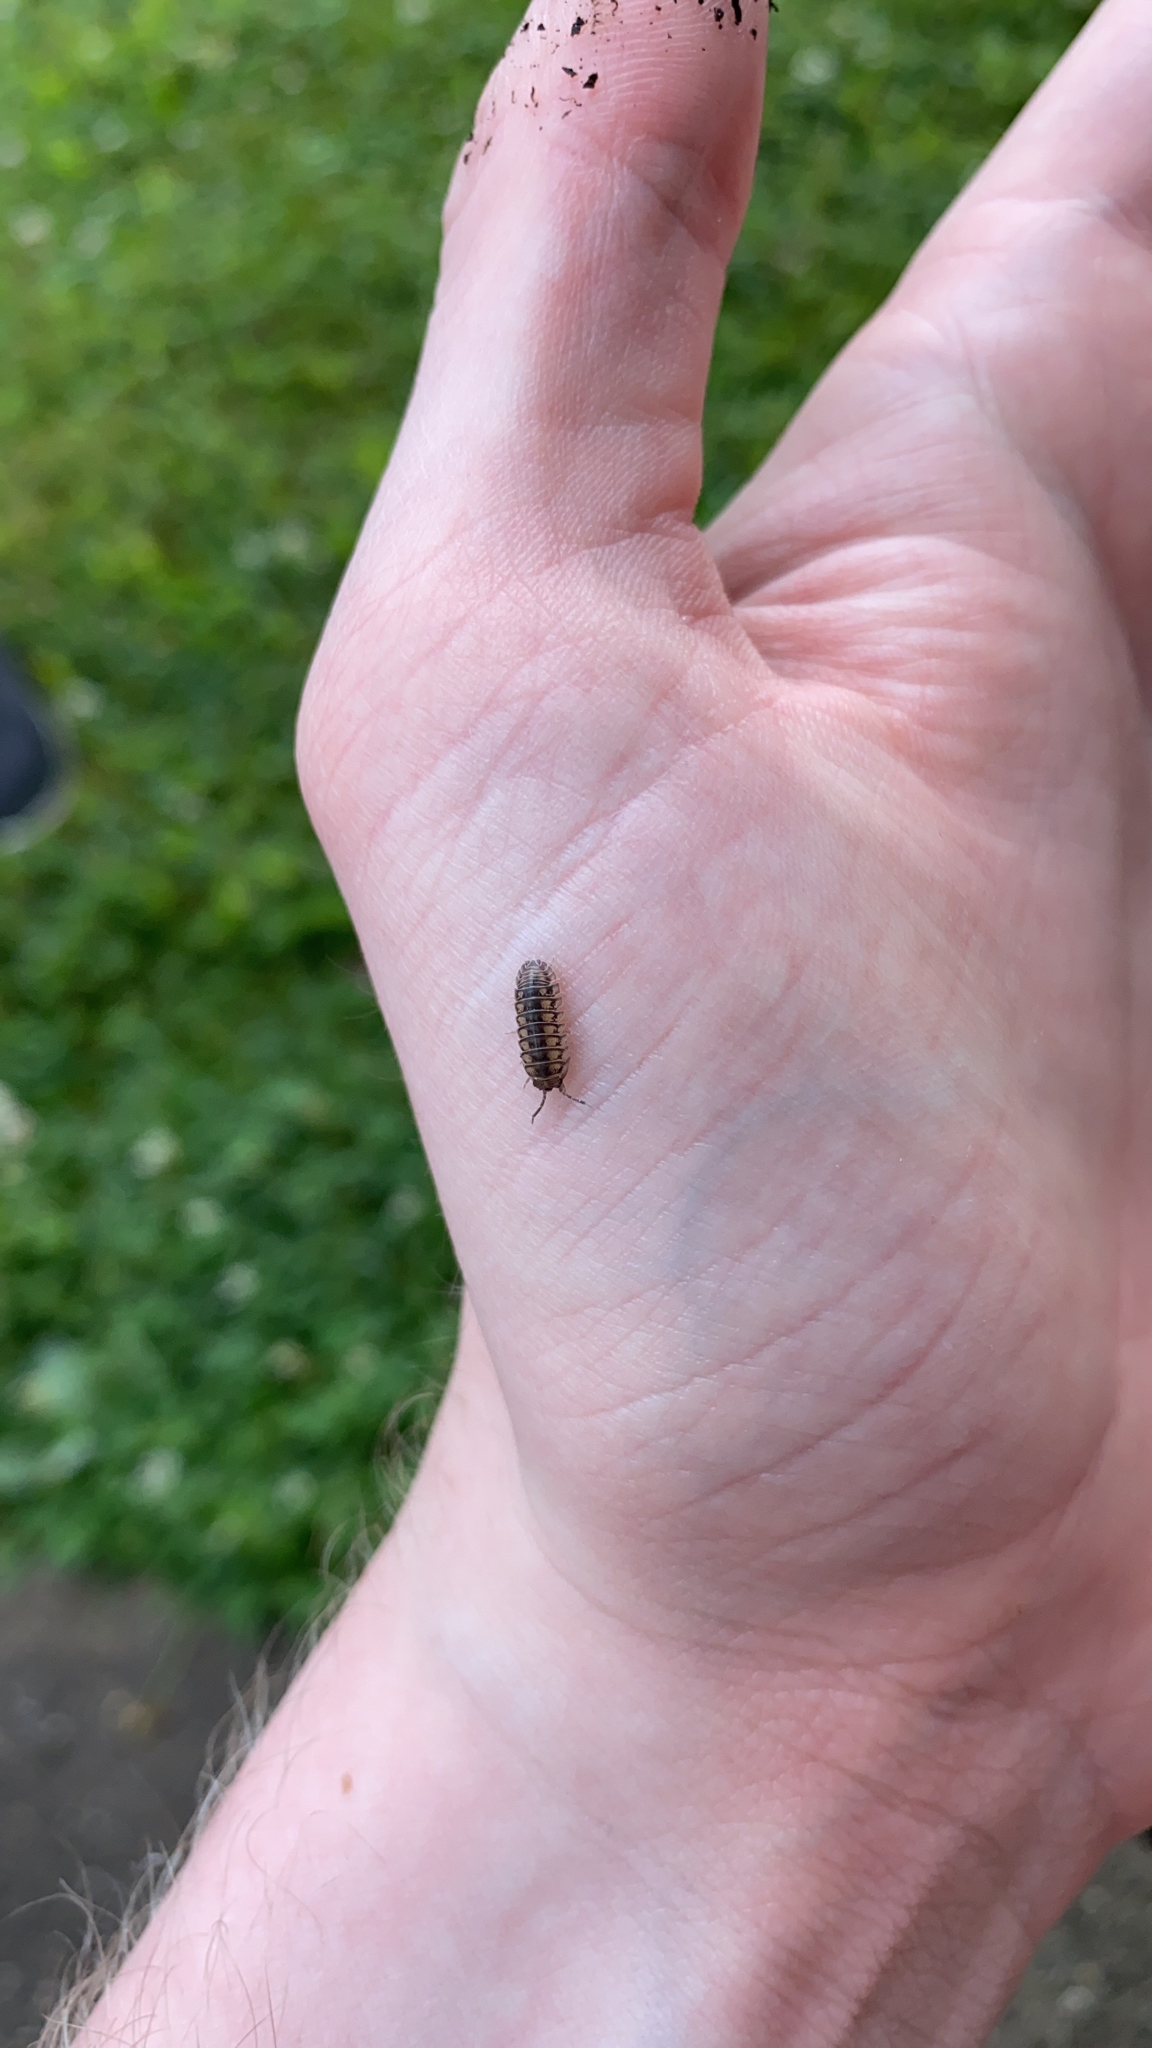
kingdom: Animalia
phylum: Arthropoda
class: Malacostraca
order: Isopoda
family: Armadillidiidae
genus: Armadillidium
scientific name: Armadillidium nasatum
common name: Isopod
